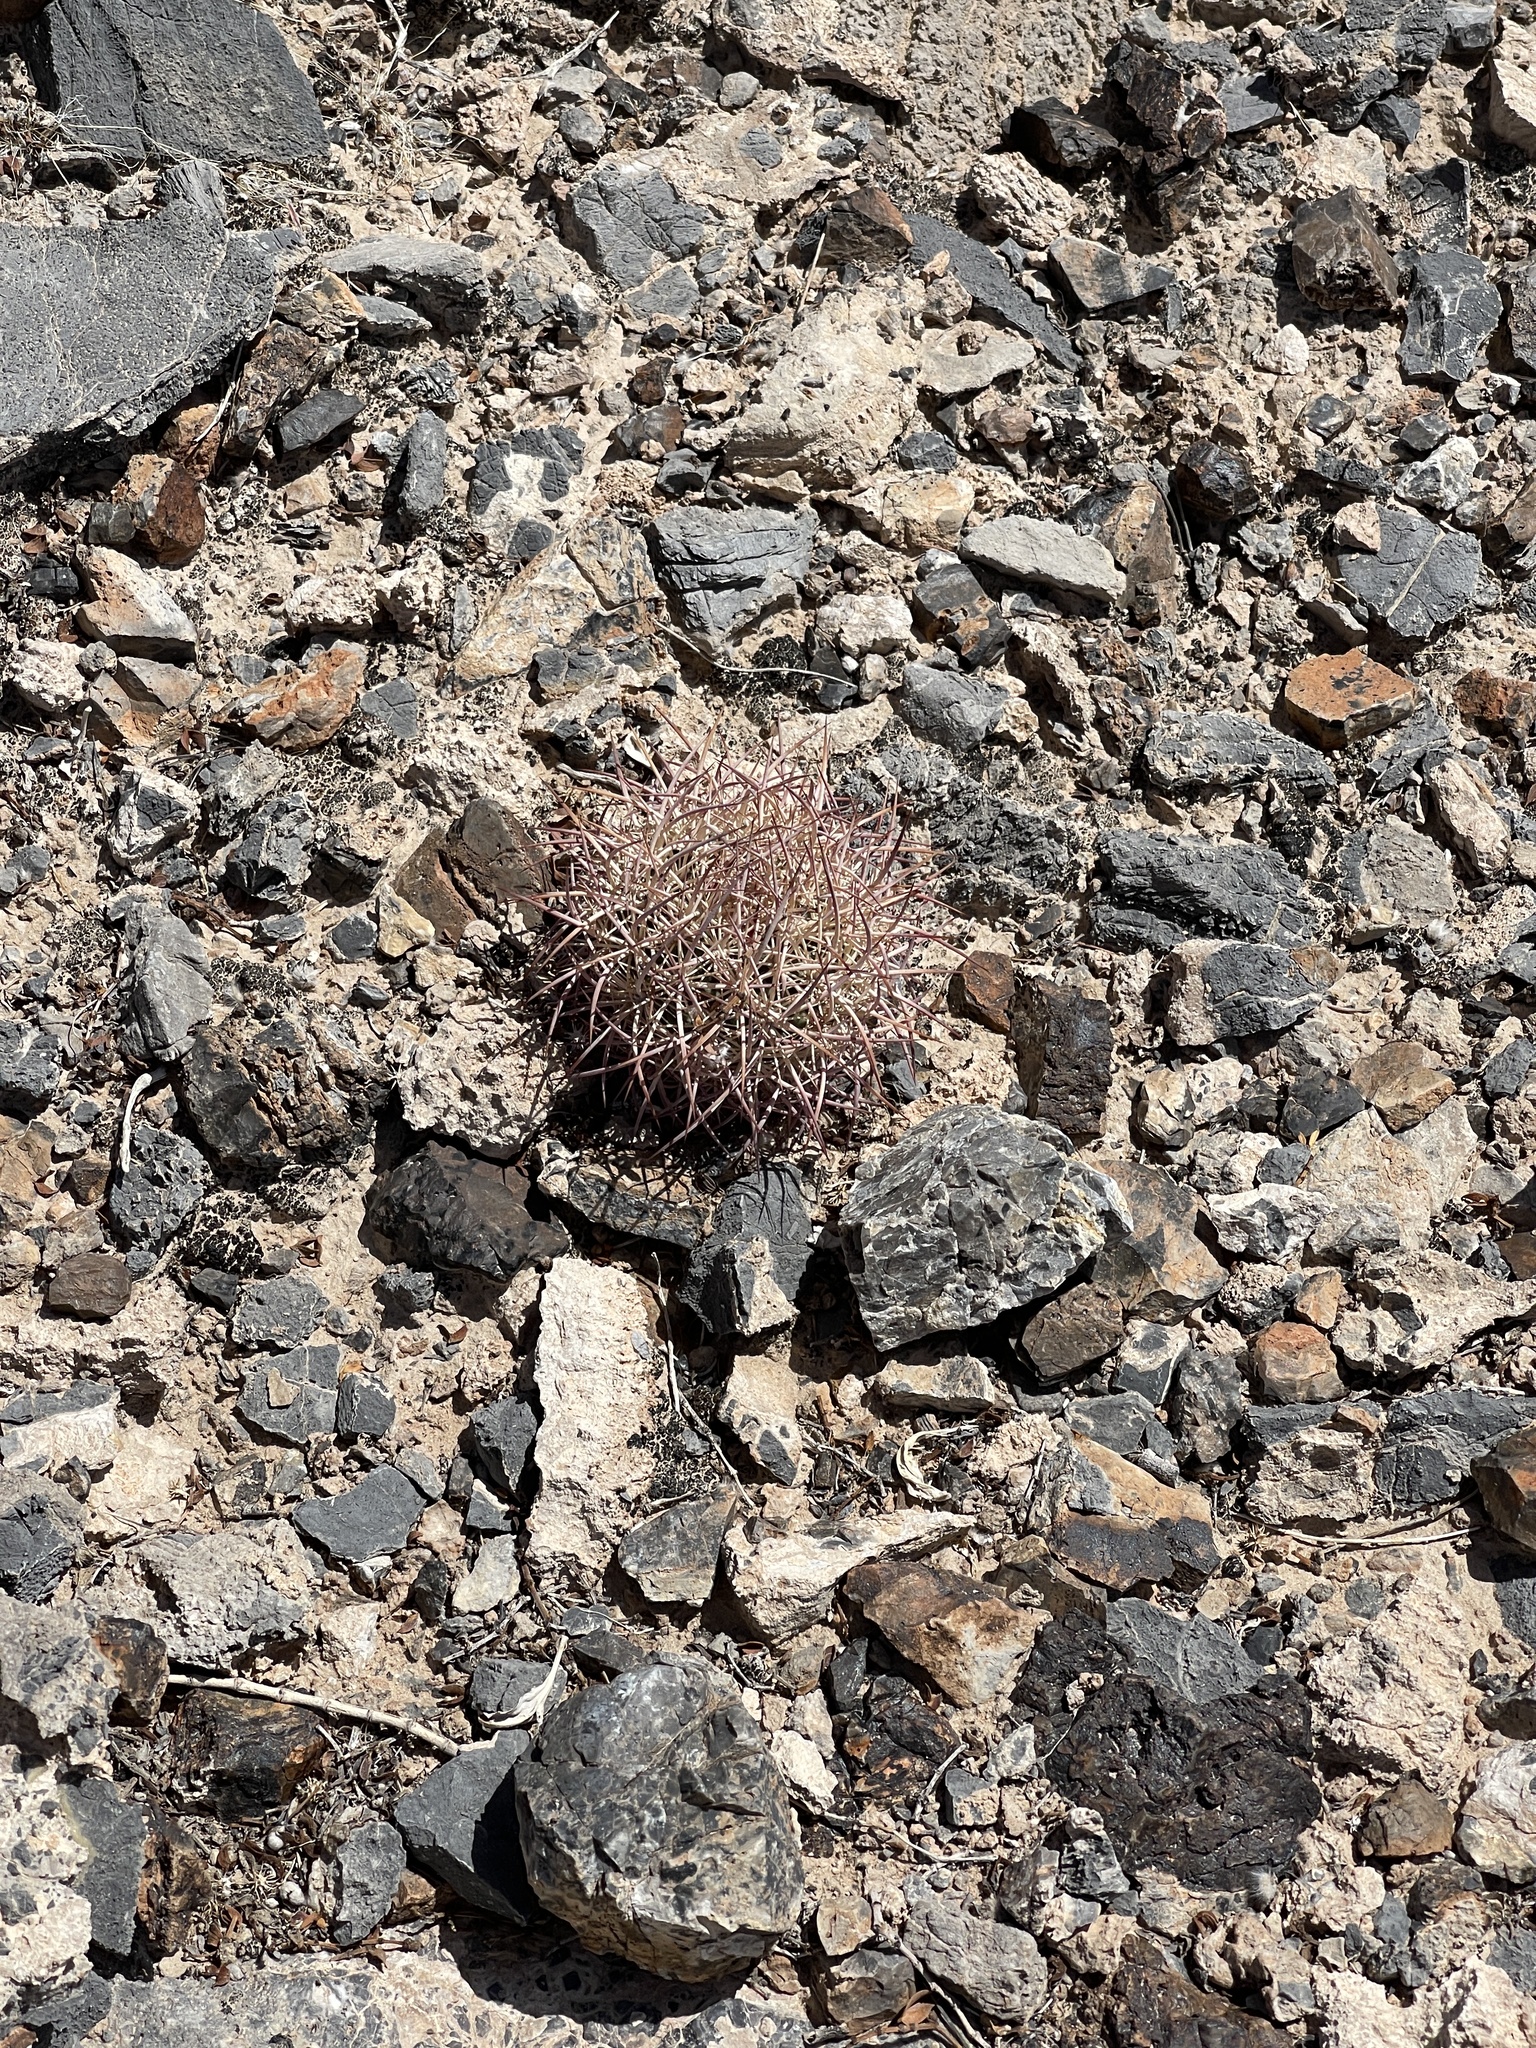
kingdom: Plantae
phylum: Tracheophyta
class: Magnoliopsida
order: Caryophyllales
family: Cactaceae
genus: Sclerocactus
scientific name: Sclerocactus johnsonii
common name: Eight-spine fishhook cactus
